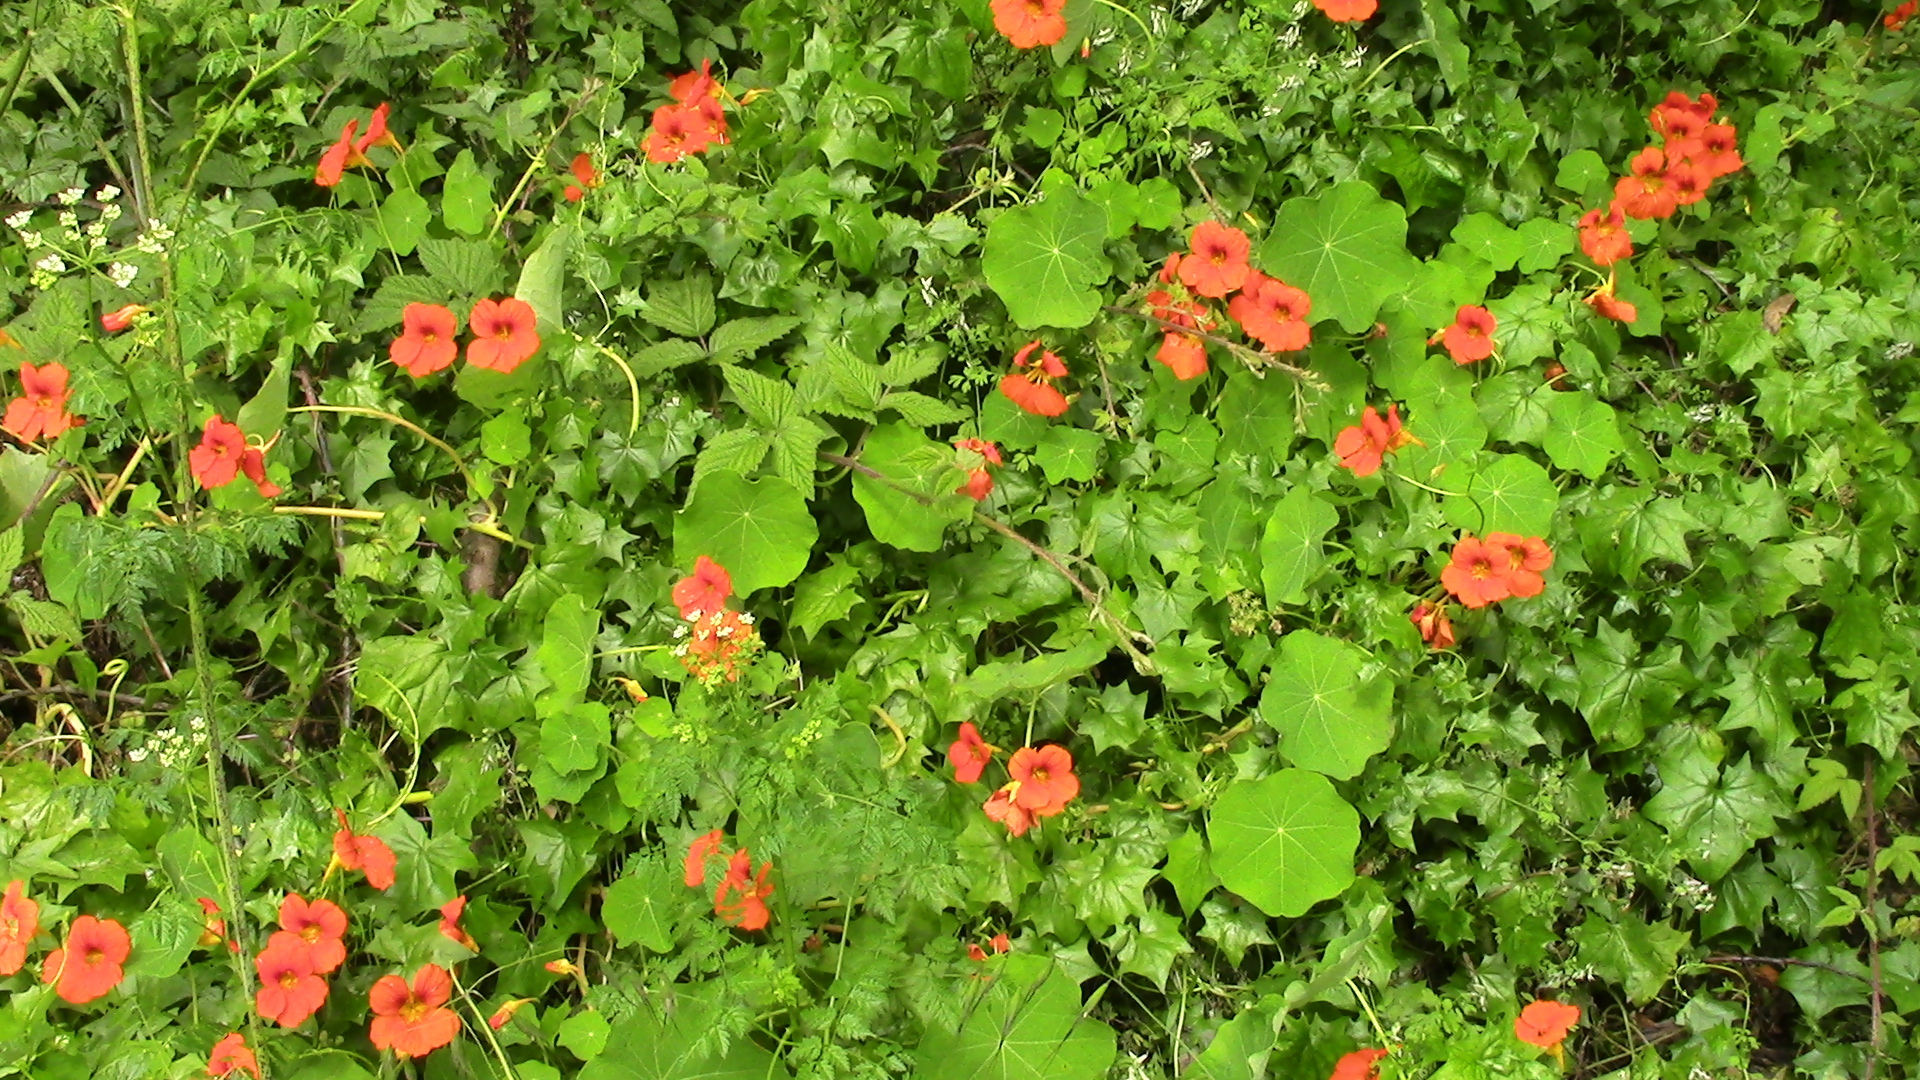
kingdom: Plantae
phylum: Tracheophyta
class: Magnoliopsida
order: Brassicales
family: Tropaeolaceae
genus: Tropaeolum
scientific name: Tropaeolum majus
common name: Nasturtium
